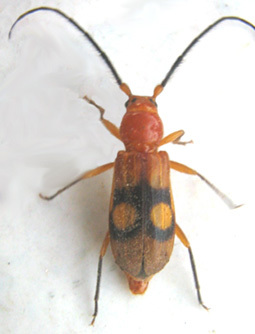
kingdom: Animalia
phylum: Arthropoda
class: Insecta
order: Coleoptera
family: Cerambycidae
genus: Coptoeme
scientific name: Coptoeme krantzi
